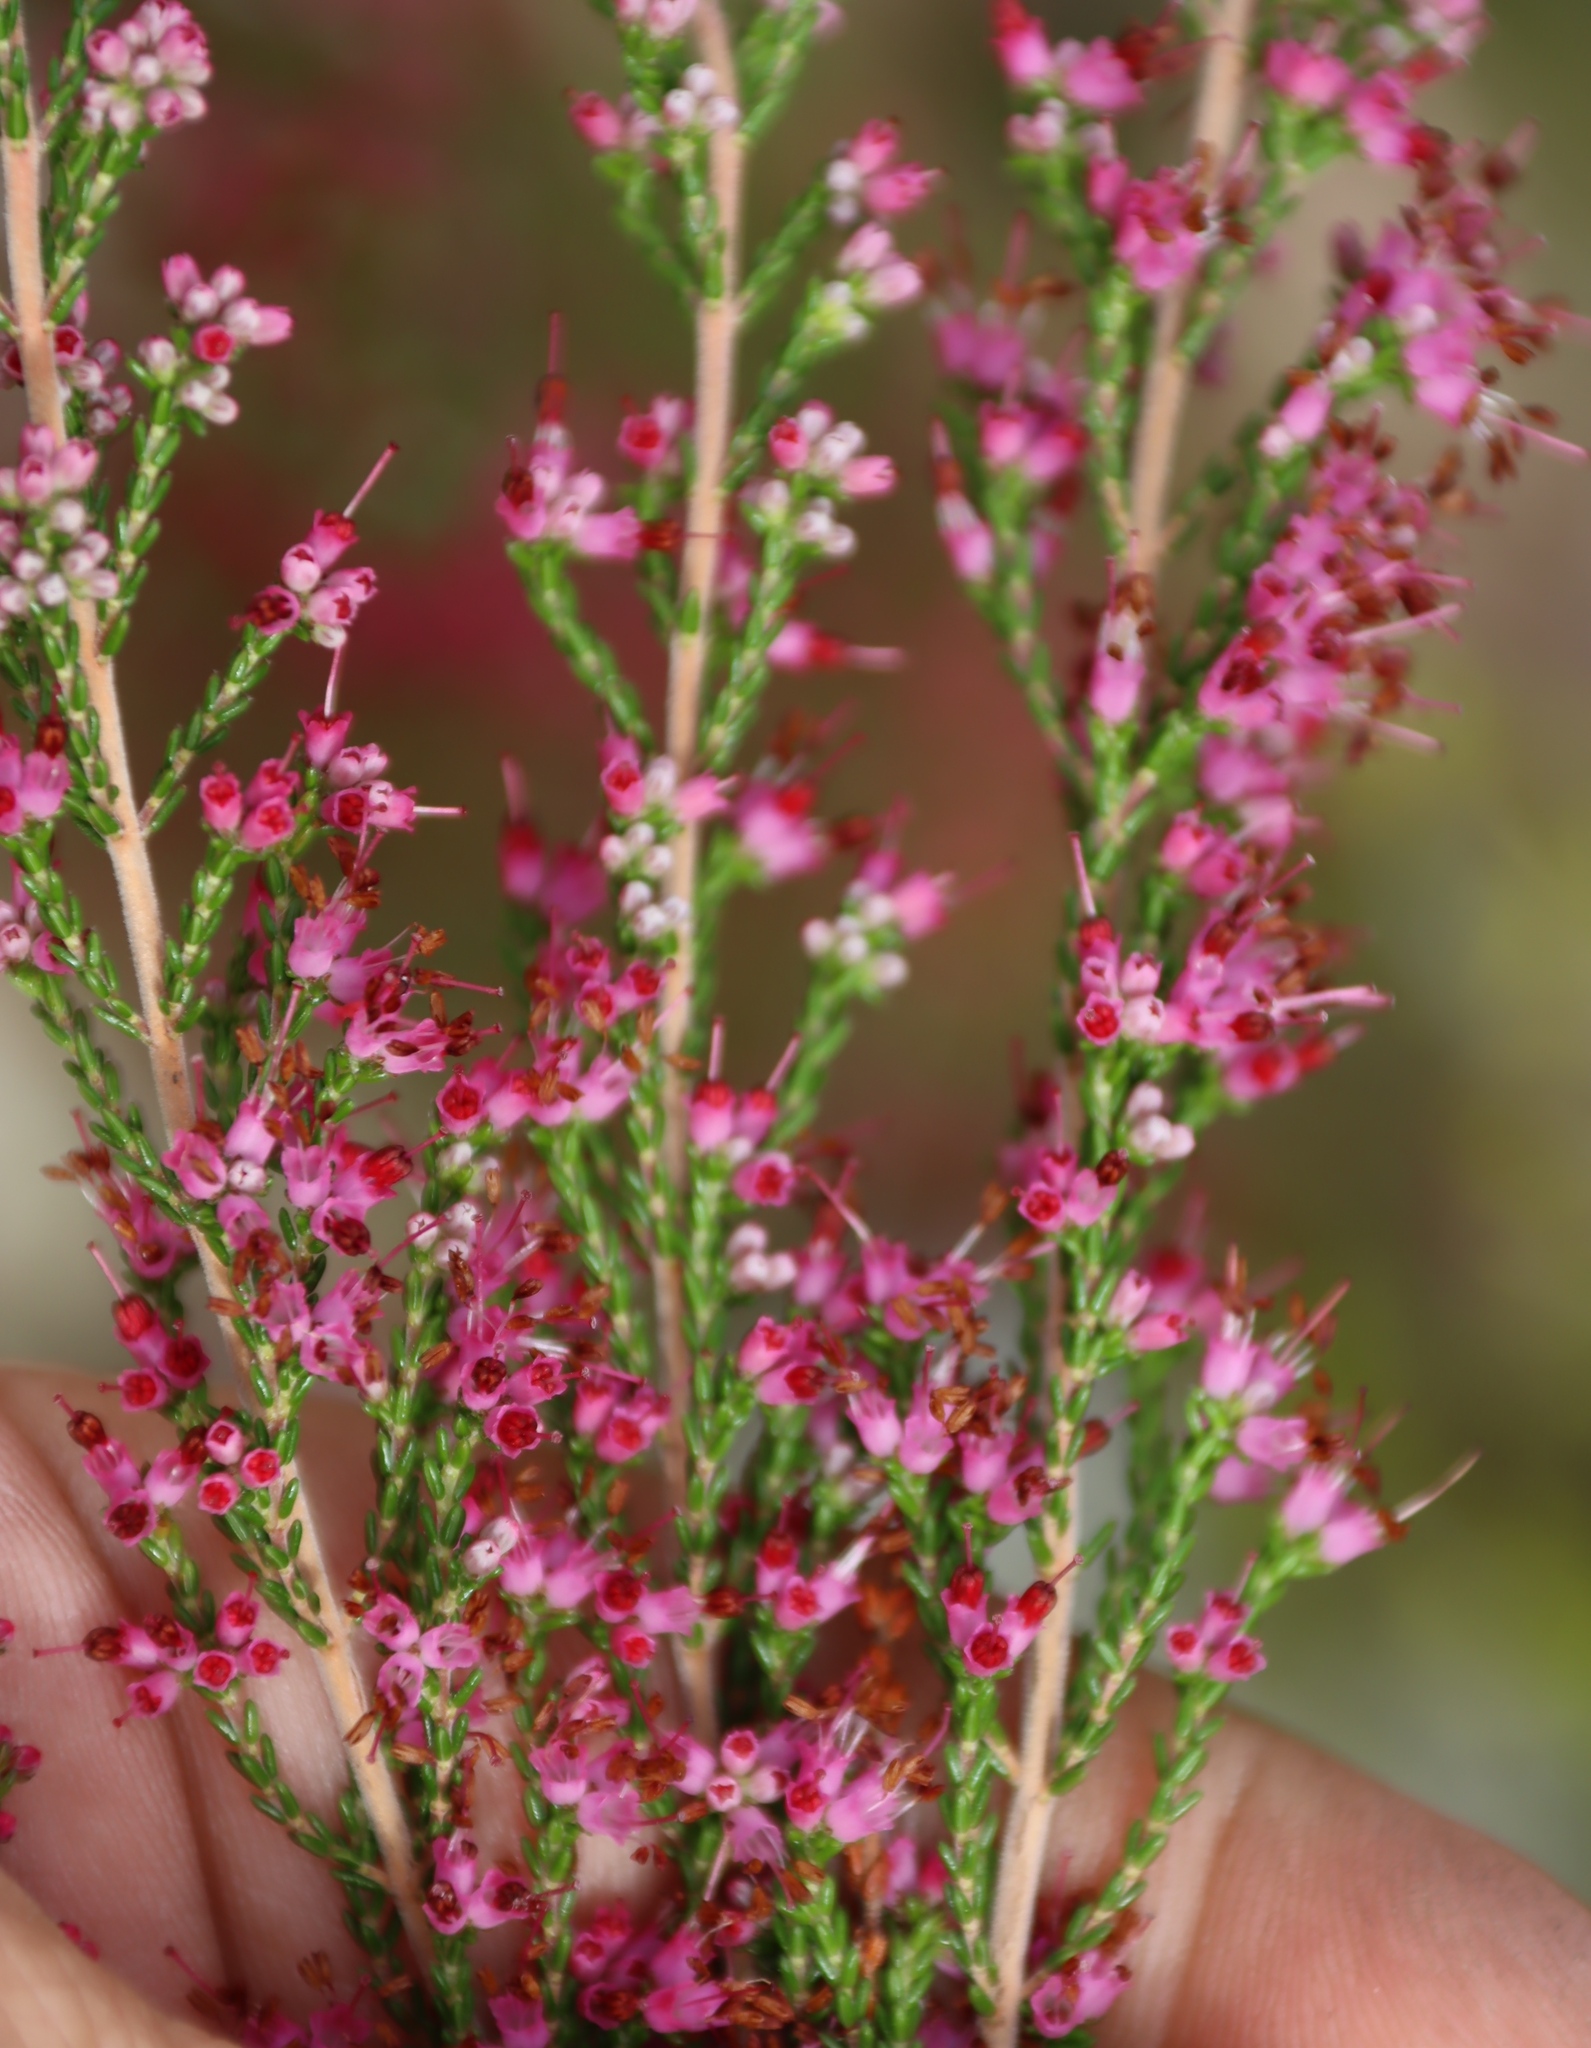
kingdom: Plantae
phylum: Tracheophyta
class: Magnoliopsida
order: Ericales
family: Ericaceae
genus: Erica
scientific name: Erica bolusanthus
